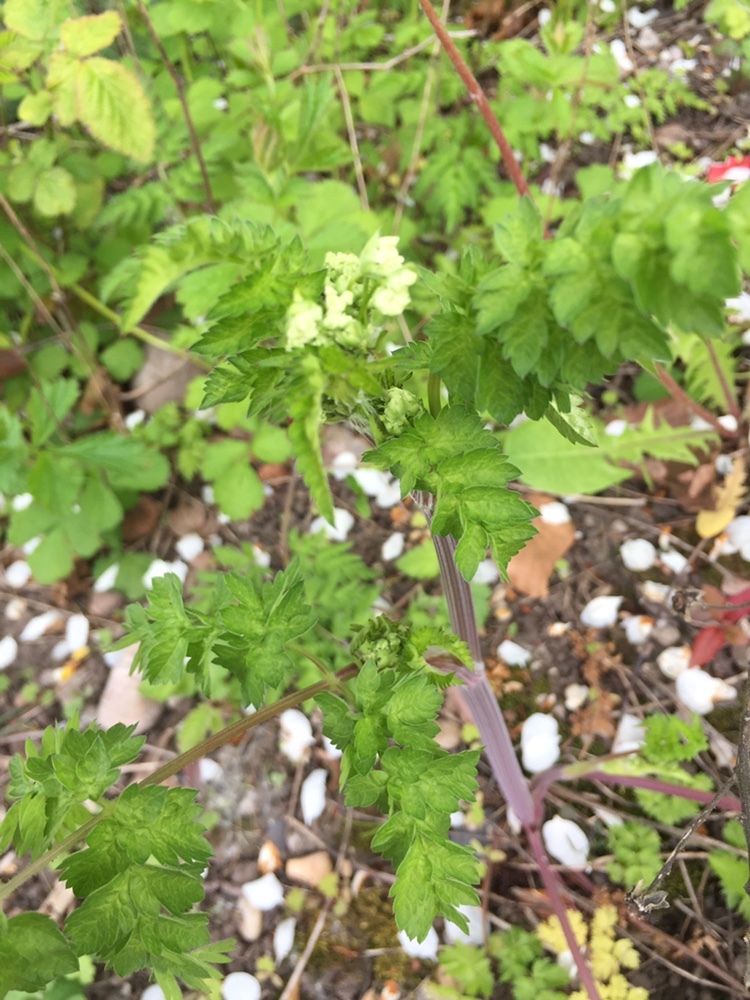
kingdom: Plantae
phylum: Tracheophyta
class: Magnoliopsida
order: Apiales
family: Apiaceae
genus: Anthriscus
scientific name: Anthriscus sylvestris
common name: Cow parsley
